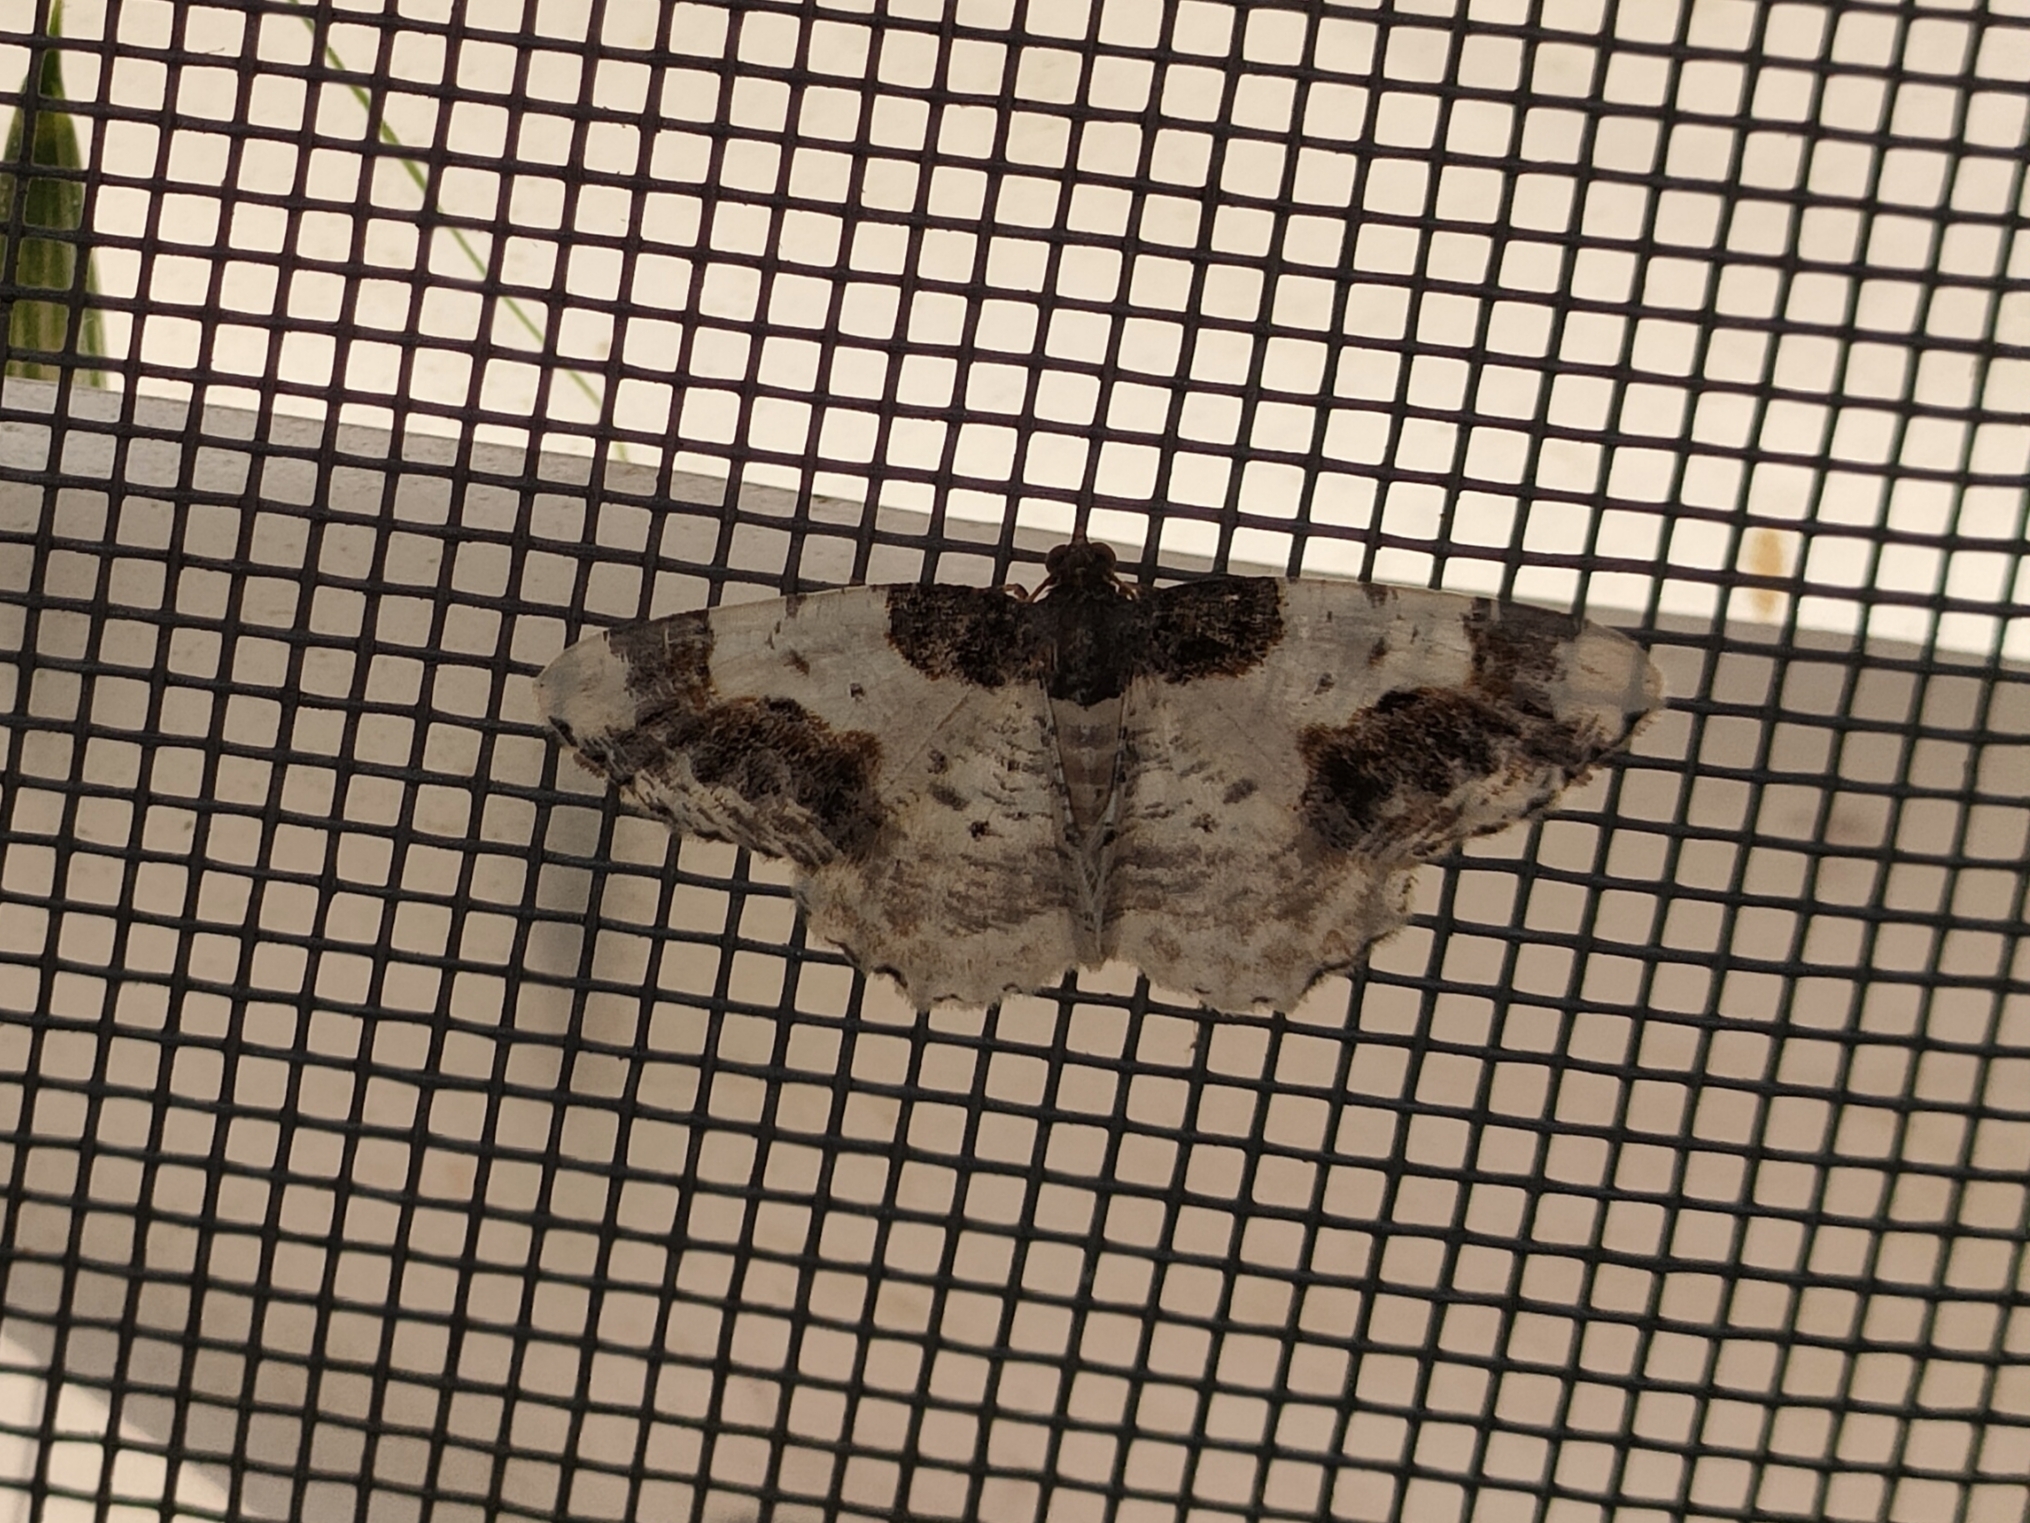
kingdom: Animalia
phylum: Arthropoda
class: Insecta
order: Lepidoptera
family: Geometridae
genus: Ligdia
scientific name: Ligdia adustata
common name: Scorched carpet
